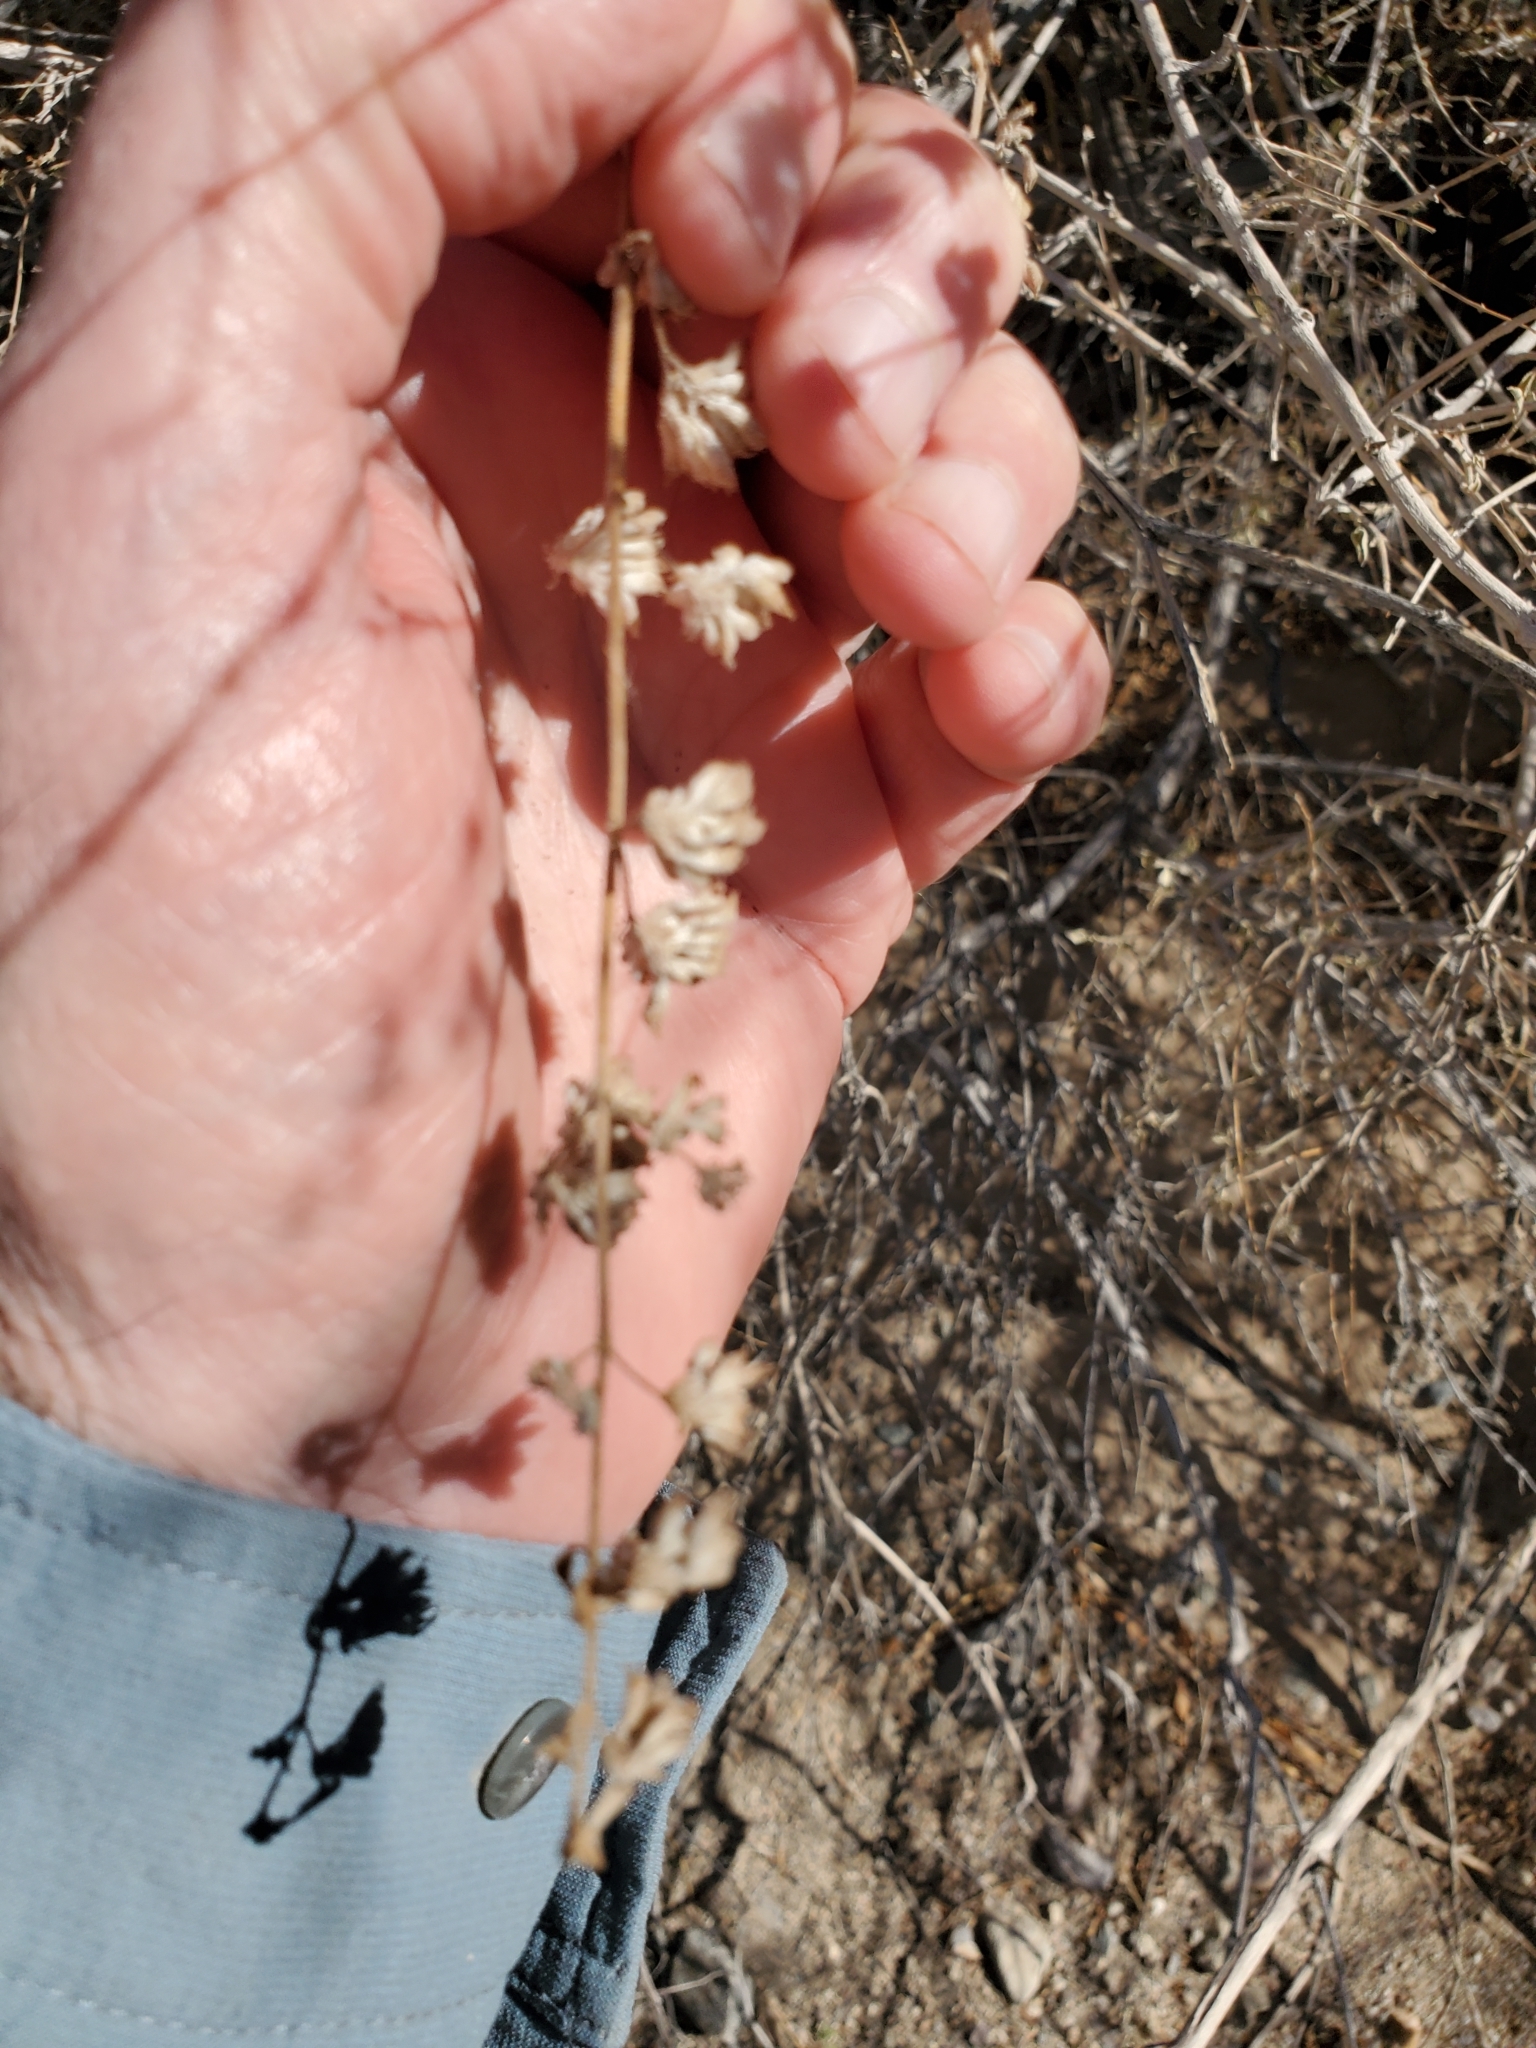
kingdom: Plantae
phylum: Tracheophyta
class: Magnoliopsida
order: Lamiales
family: Lamiaceae
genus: Condea
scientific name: Condea emoryi
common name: Chia
